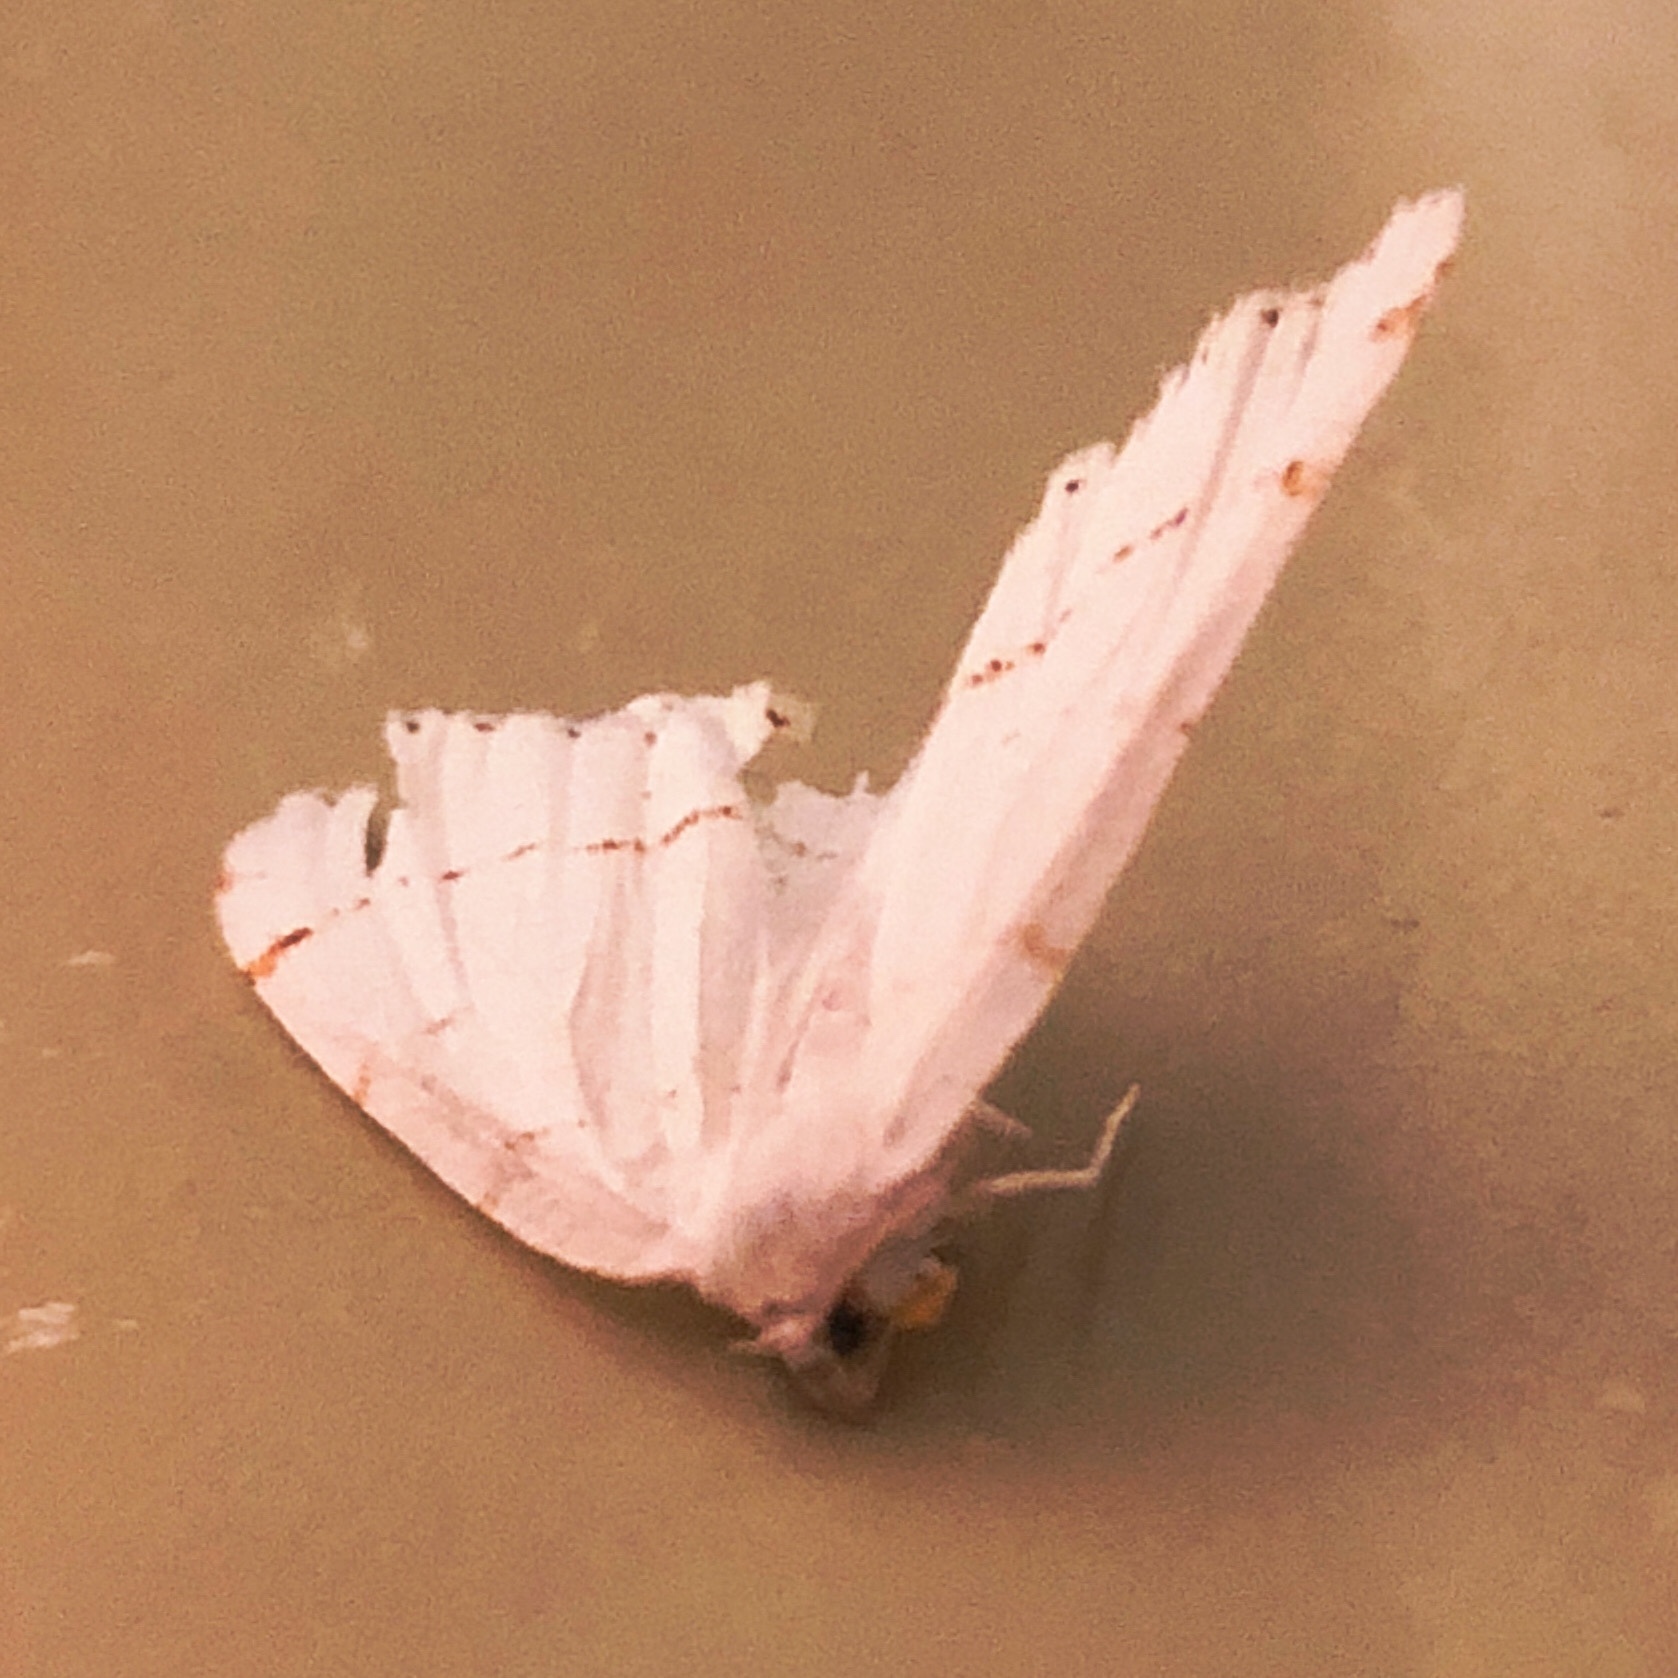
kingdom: Animalia
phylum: Arthropoda
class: Insecta
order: Lepidoptera
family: Geometridae
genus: Macaria
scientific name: Macaria pustularia
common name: Lesser maple spanworm moth
